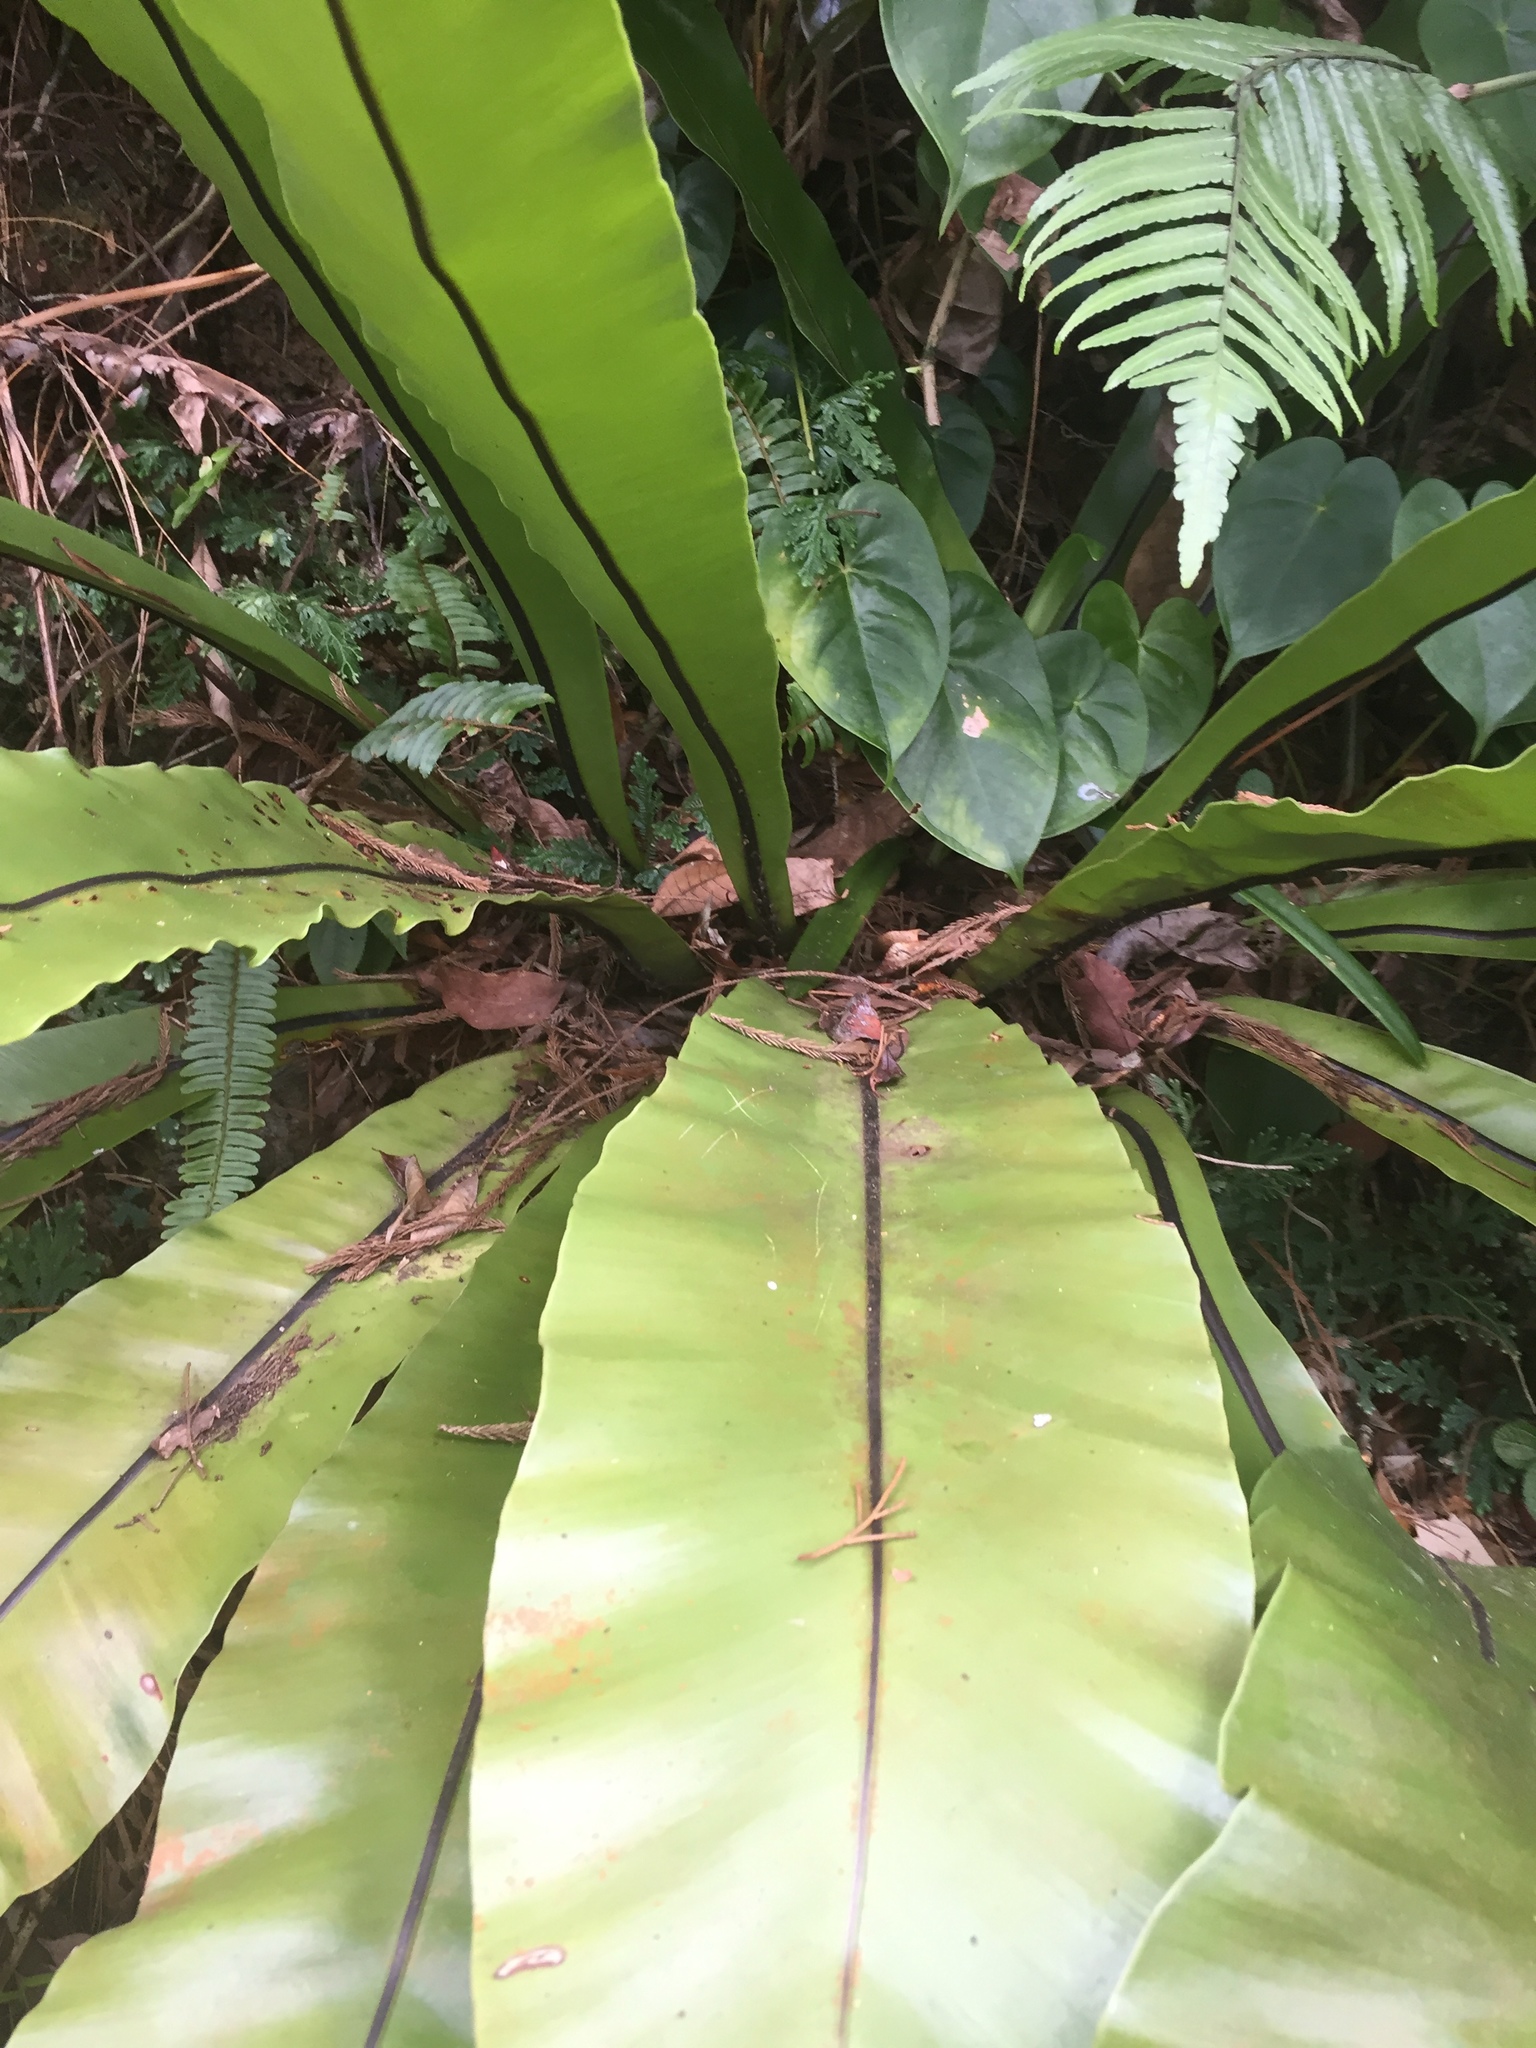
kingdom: Plantae
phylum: Tracheophyta
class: Polypodiopsida
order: Polypodiales
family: Aspleniaceae
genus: Asplenium
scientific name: Asplenium nidus
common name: Bird's-nest fern
